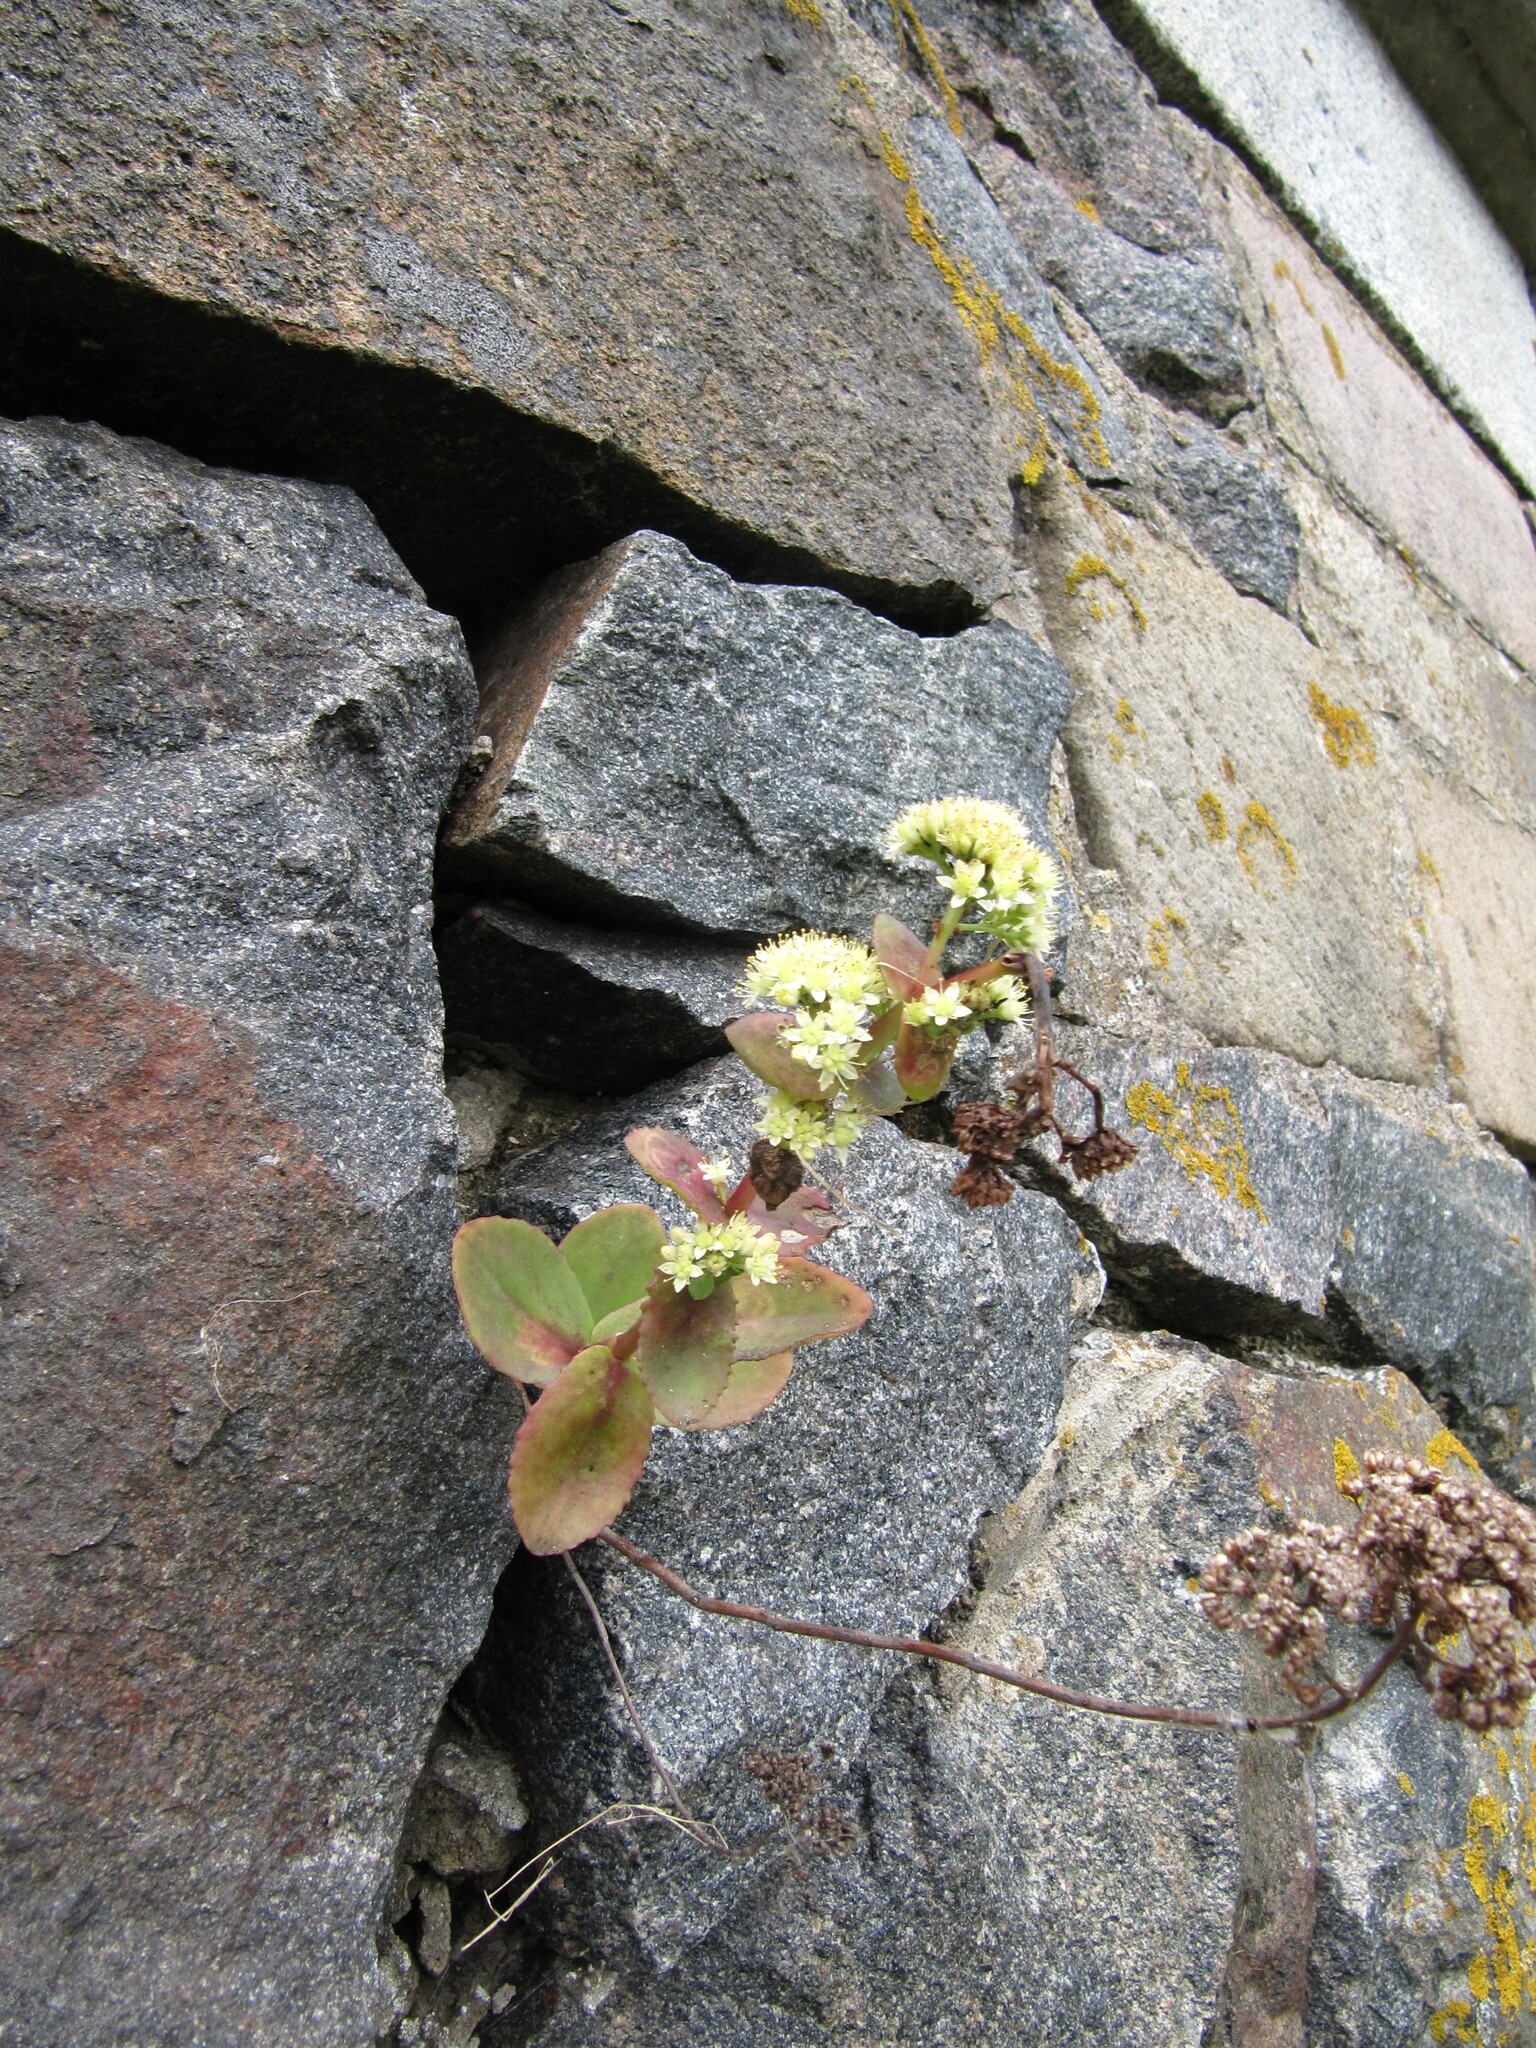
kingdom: Plantae
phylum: Tracheophyta
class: Magnoliopsida
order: Saxifragales
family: Crassulaceae
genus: Hylotelephium
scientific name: Hylotelephium maximum
